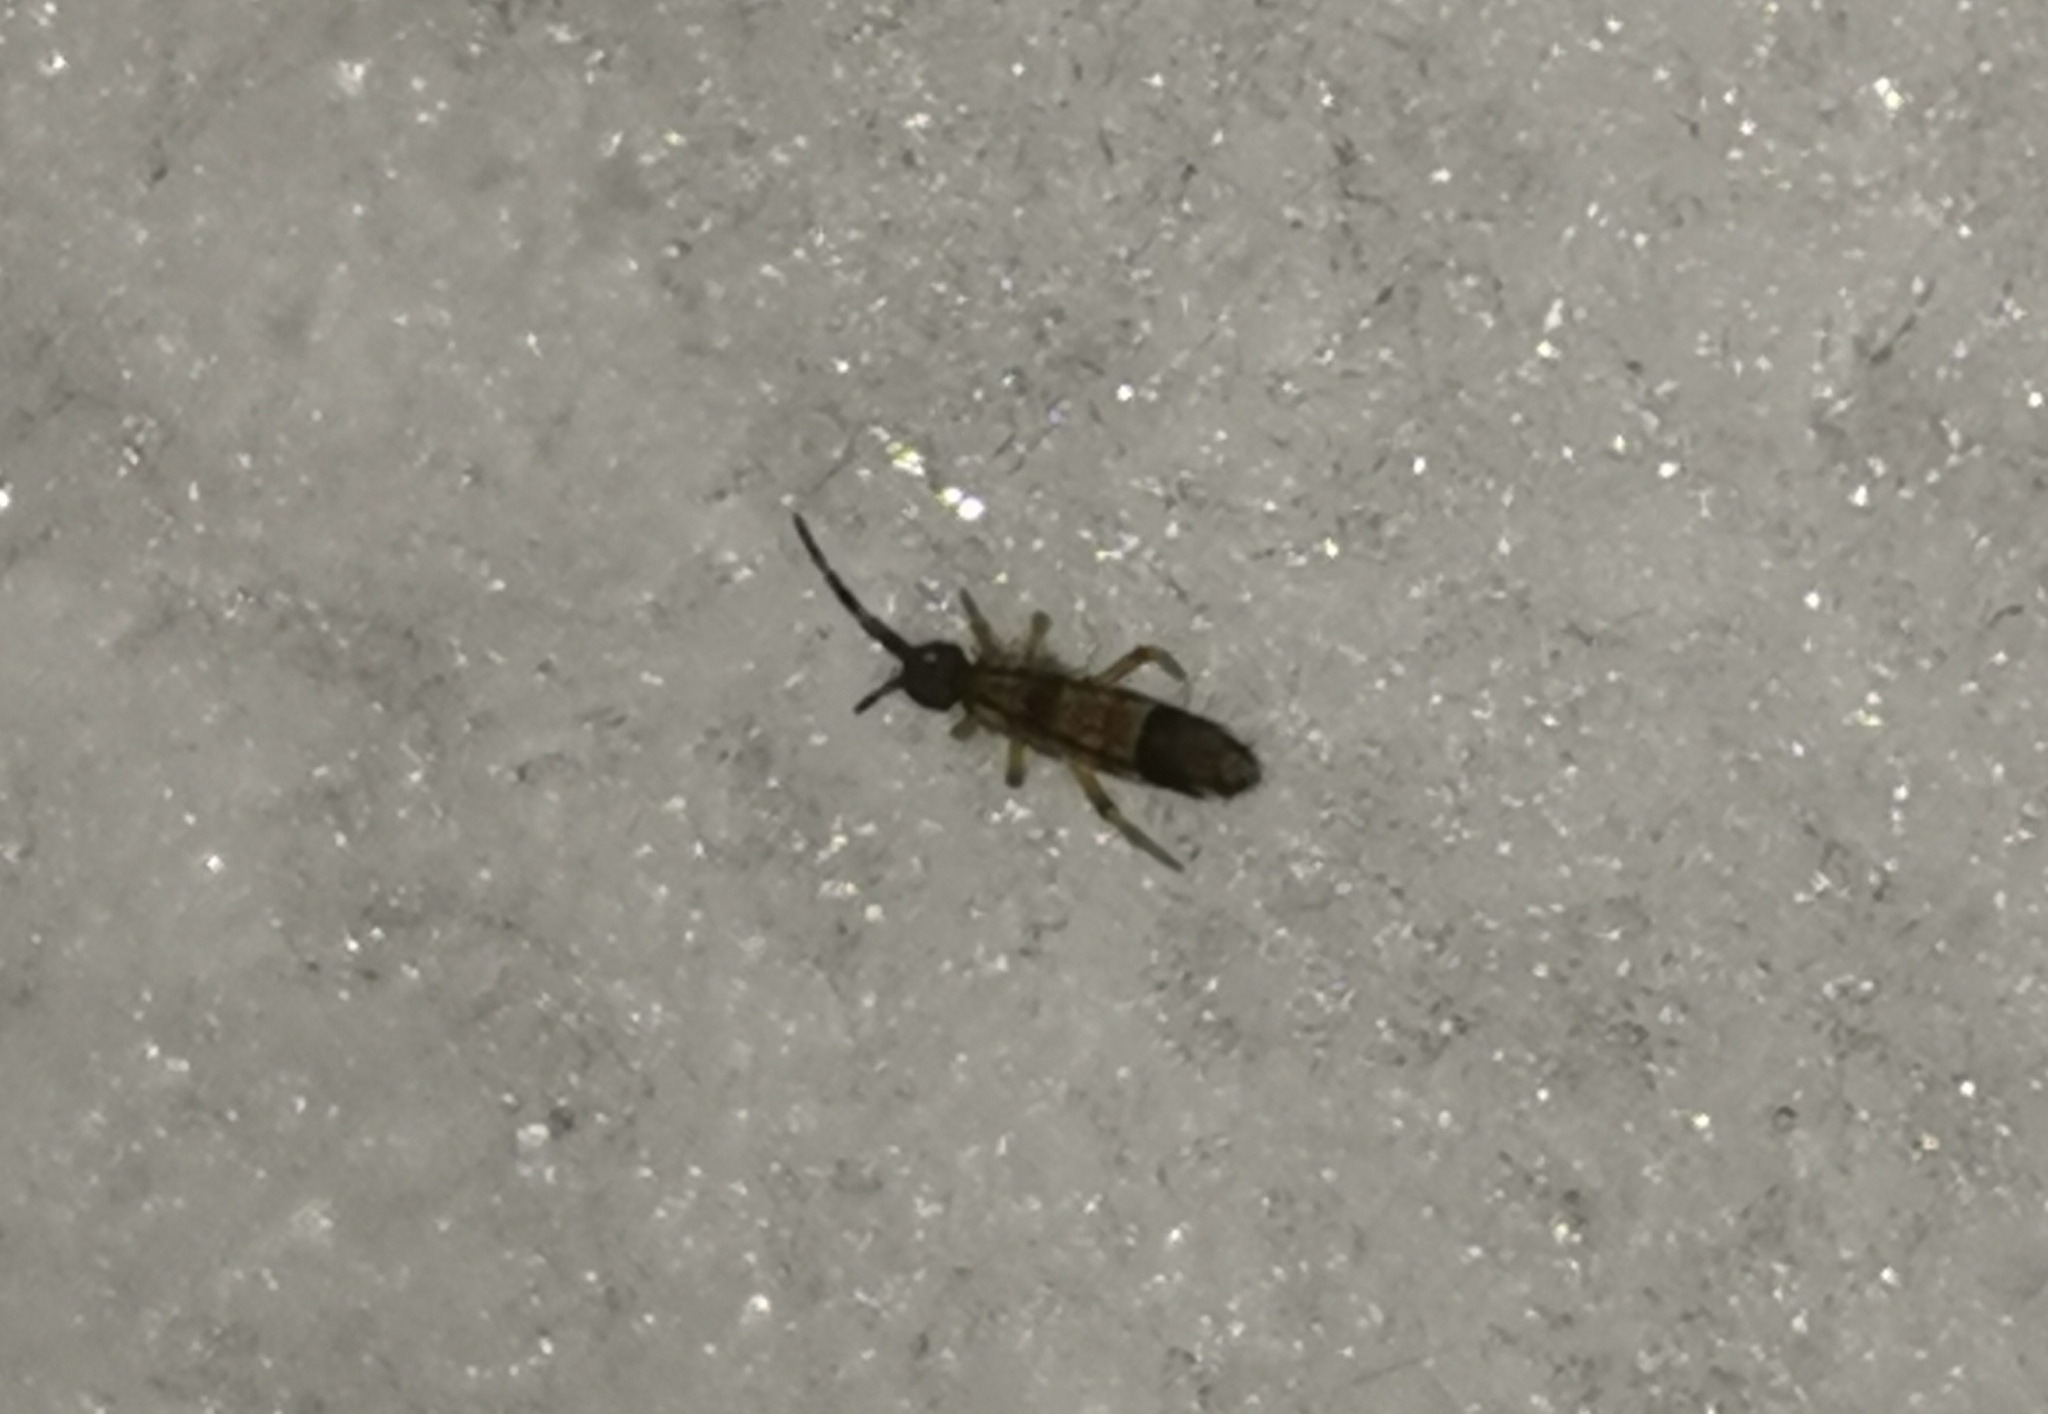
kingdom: Animalia
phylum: Arthropoda
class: Collembola
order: Entomobryomorpha
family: Entomobryidae
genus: Entomobrya
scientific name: Entomobrya nivalis
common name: Cosmopolitan springtail
